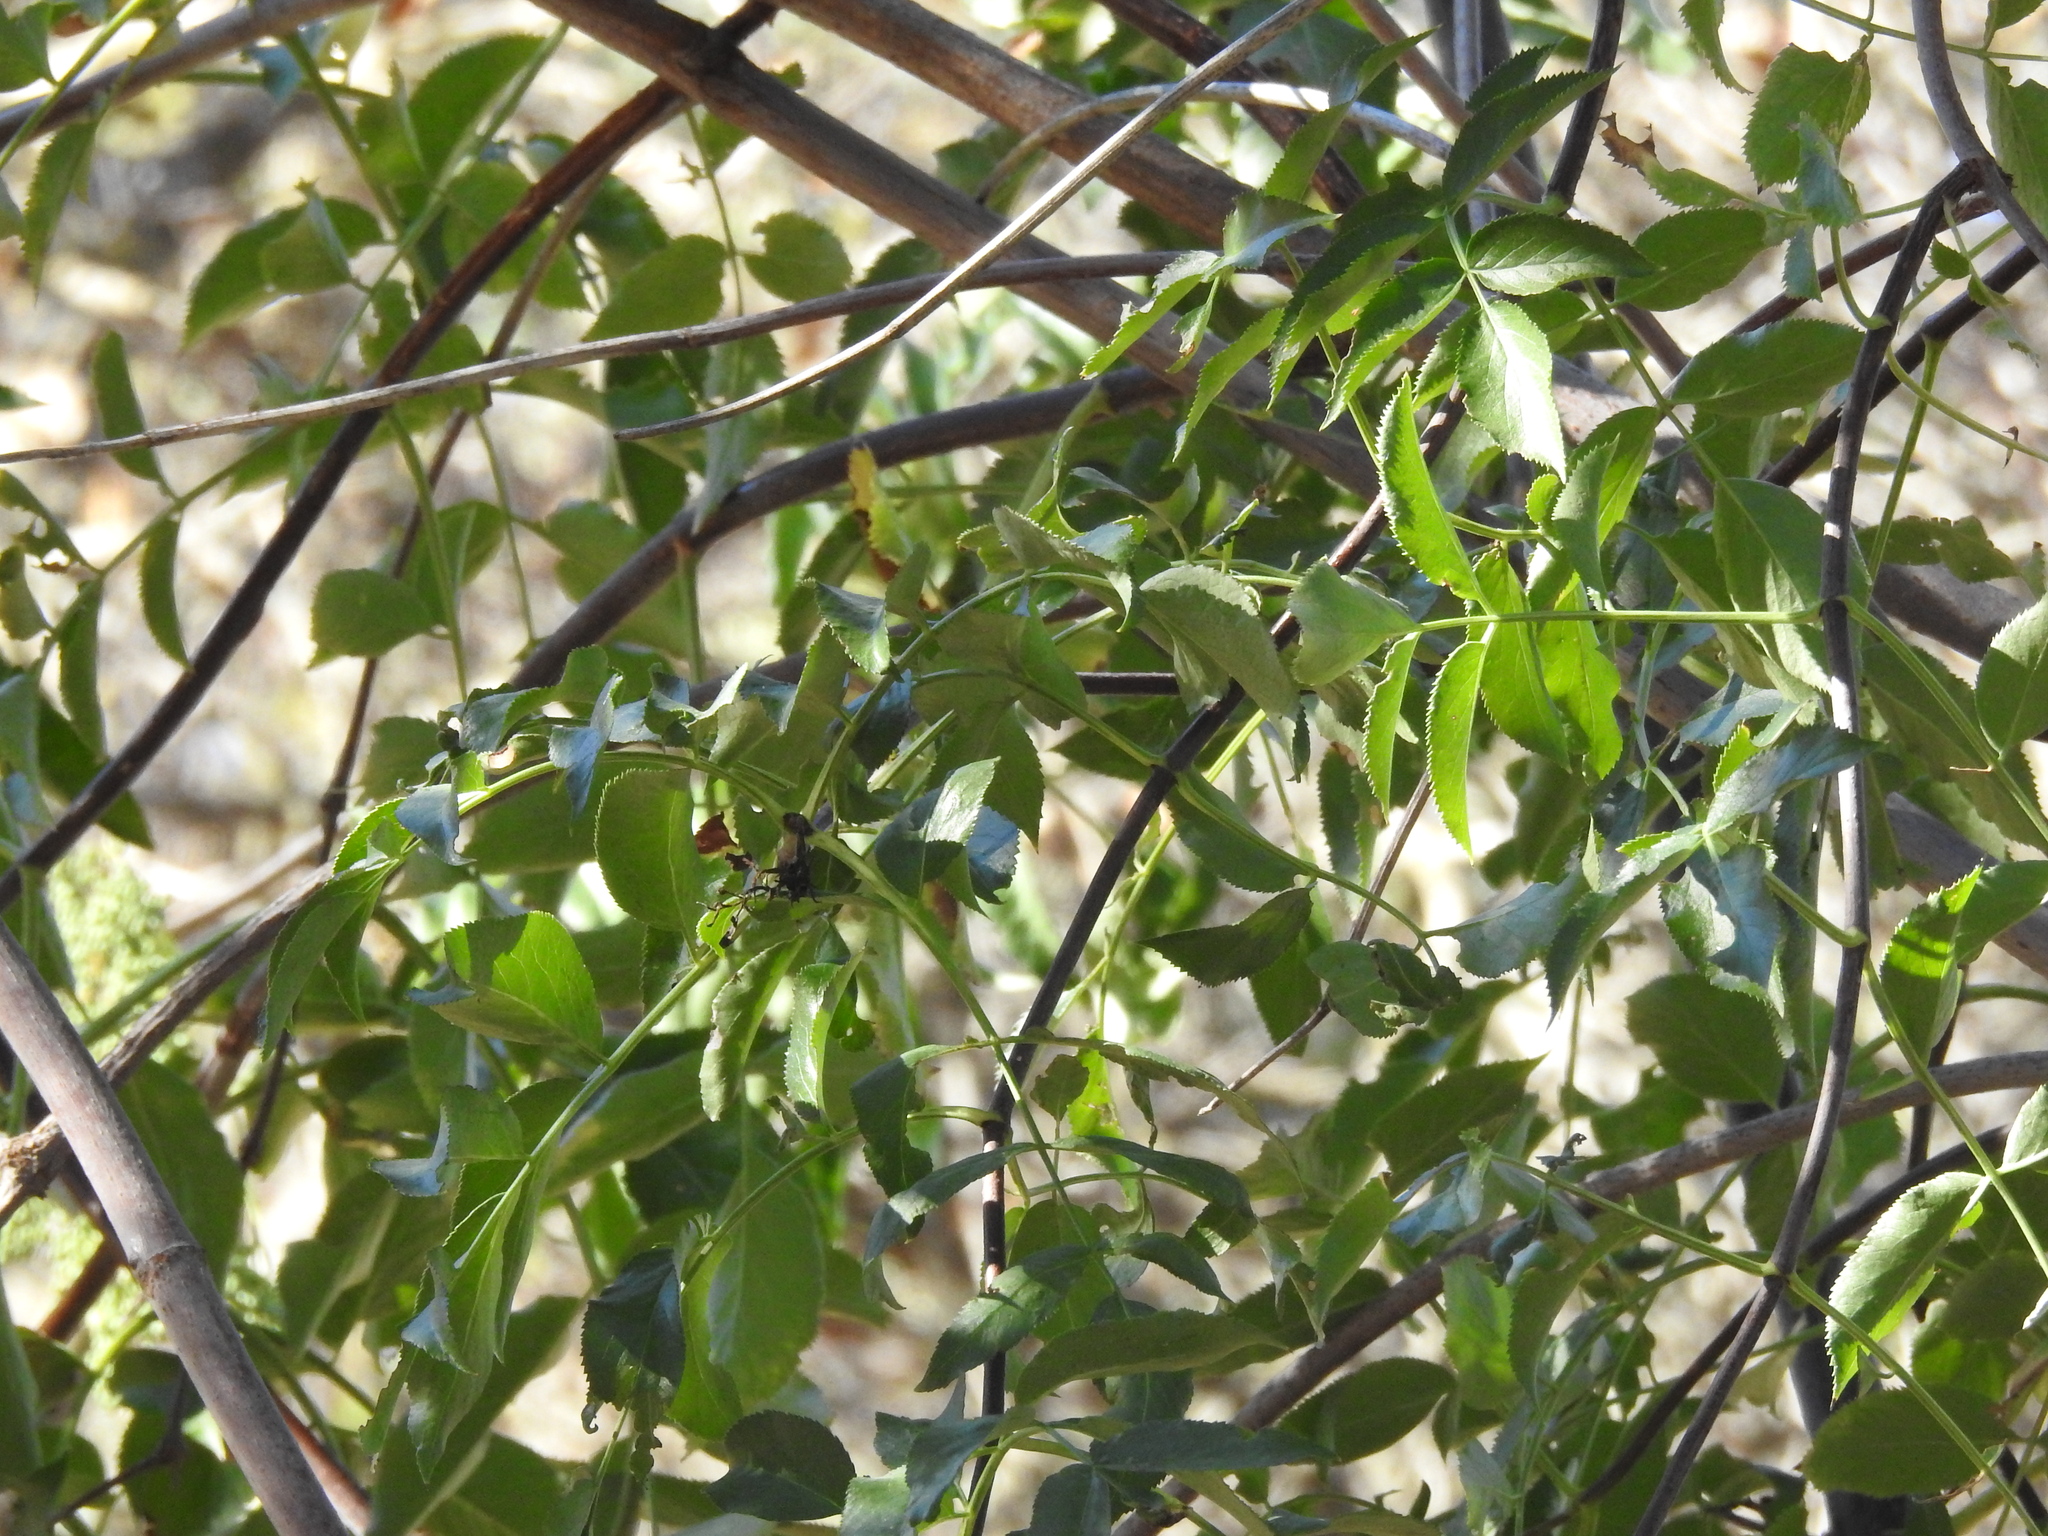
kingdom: Plantae
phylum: Tracheophyta
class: Magnoliopsida
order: Dipsacales
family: Viburnaceae
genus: Sambucus
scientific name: Sambucus cerulea
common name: Blue elder
